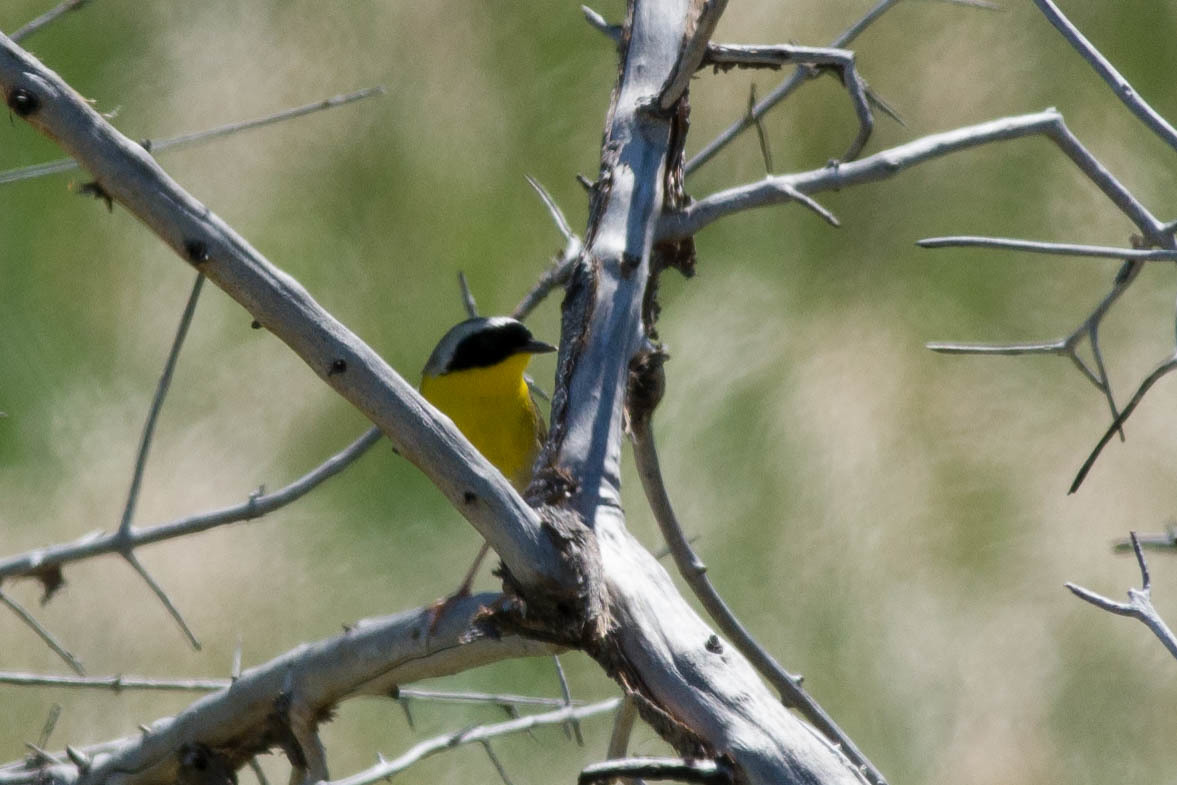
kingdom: Animalia
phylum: Chordata
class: Aves
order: Passeriformes
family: Parulidae
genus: Geothlypis
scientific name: Geothlypis trichas
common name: Common yellowthroat
